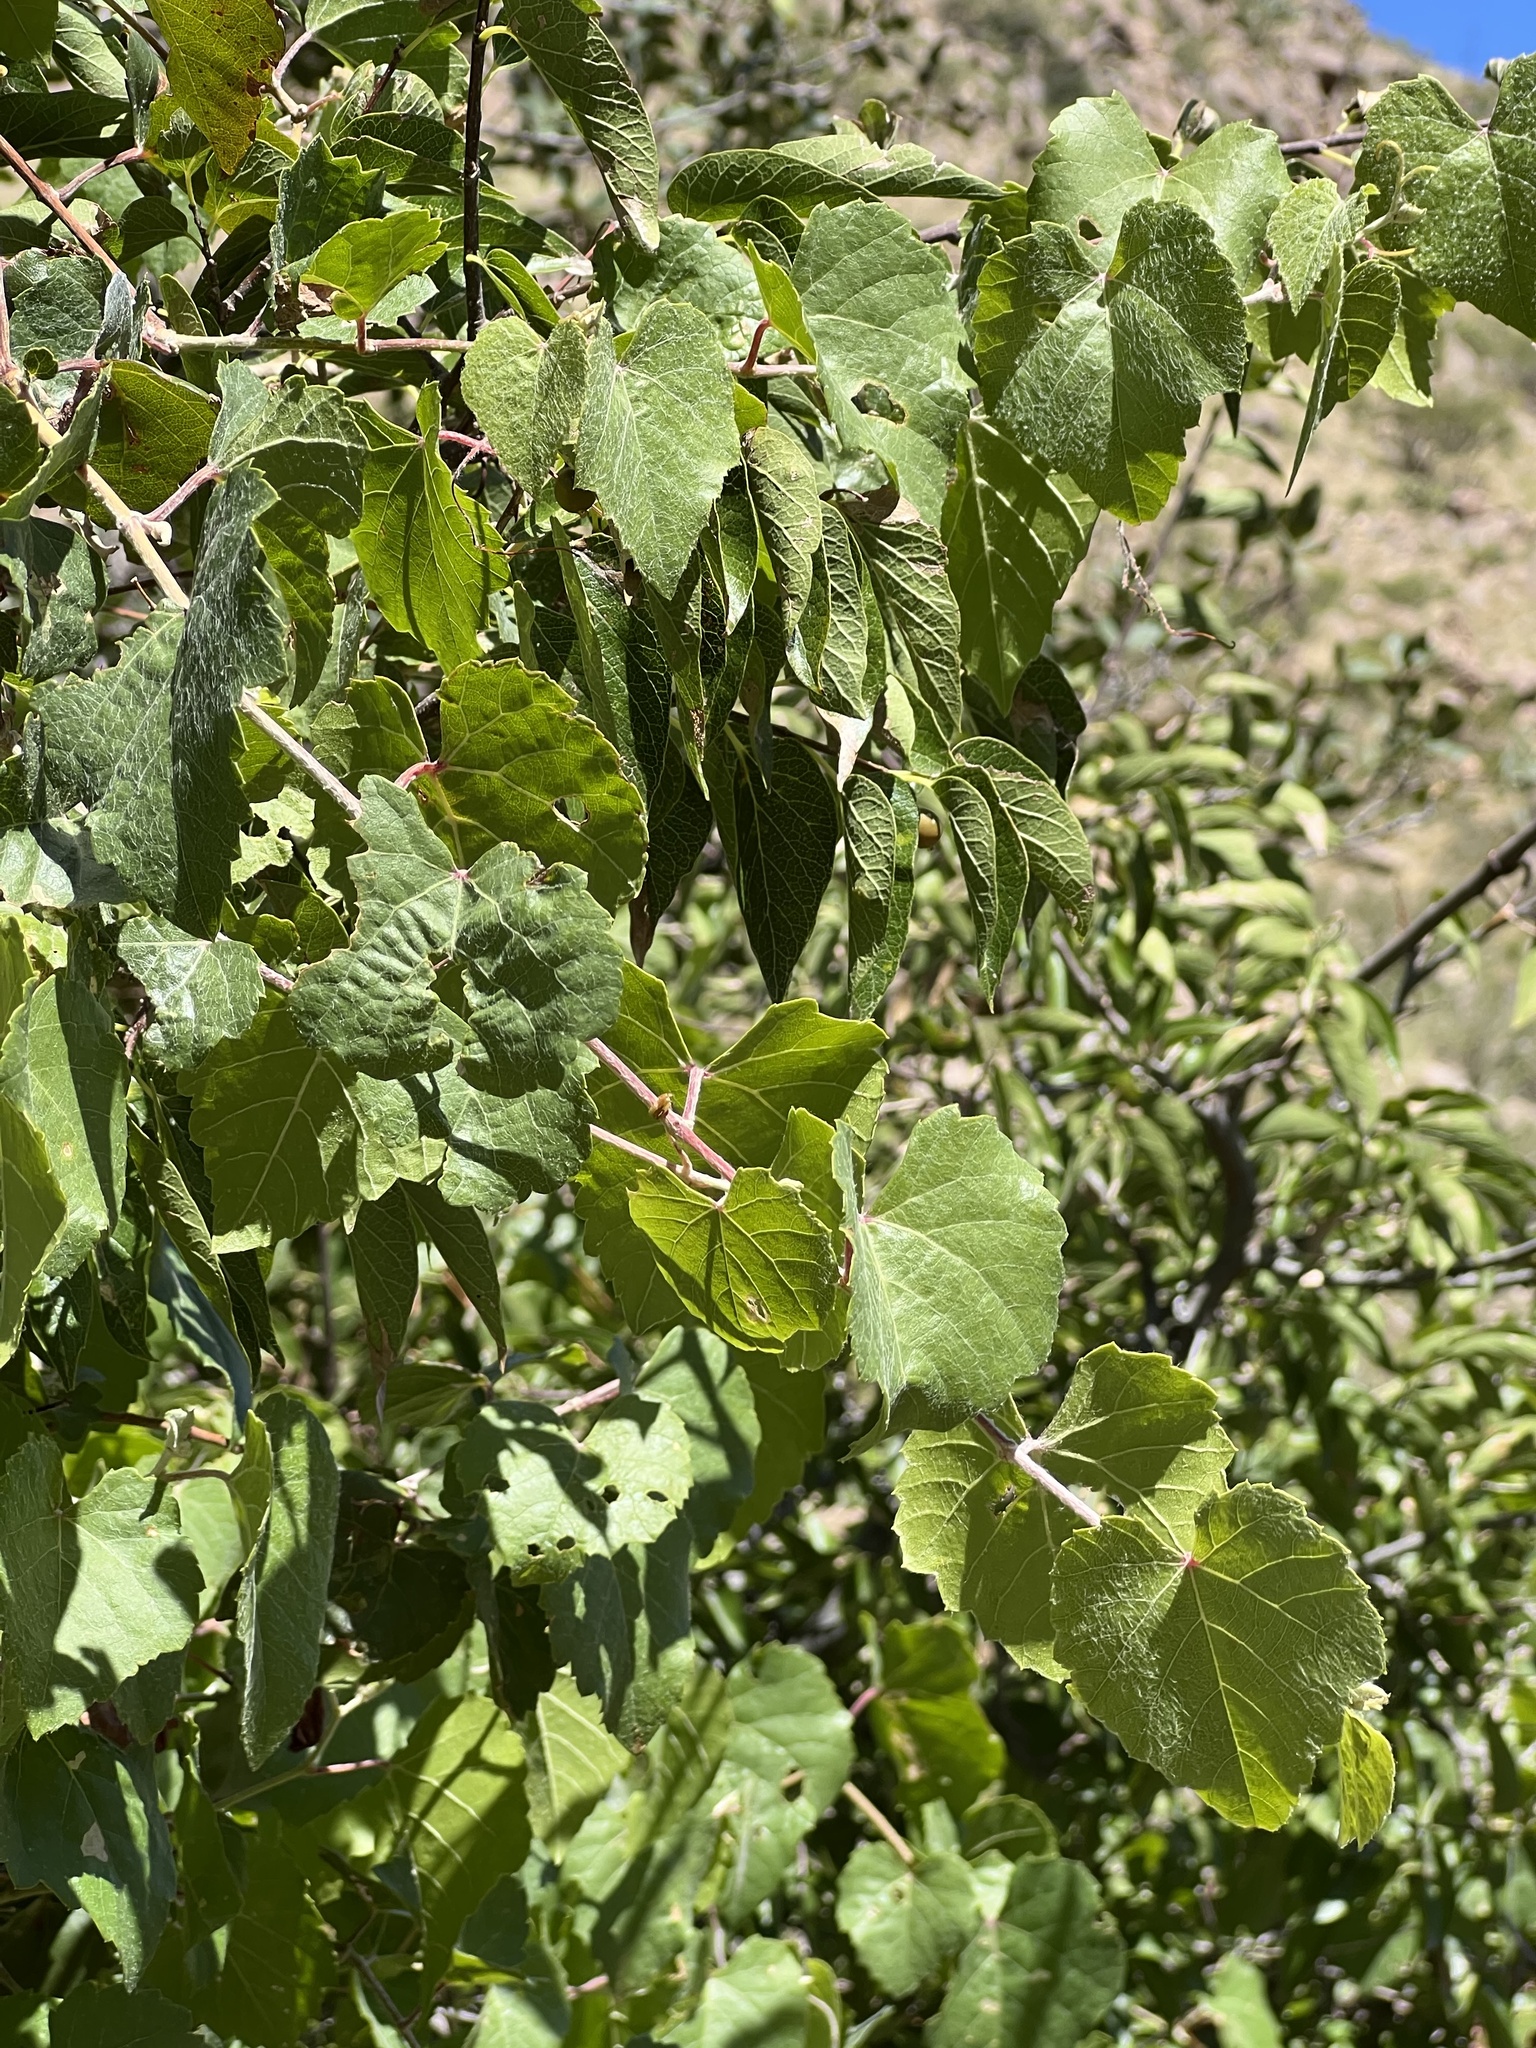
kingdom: Plantae
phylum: Tracheophyta
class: Magnoliopsida
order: Vitales
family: Vitaceae
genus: Vitis
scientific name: Vitis arizonica
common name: Canyon grape
